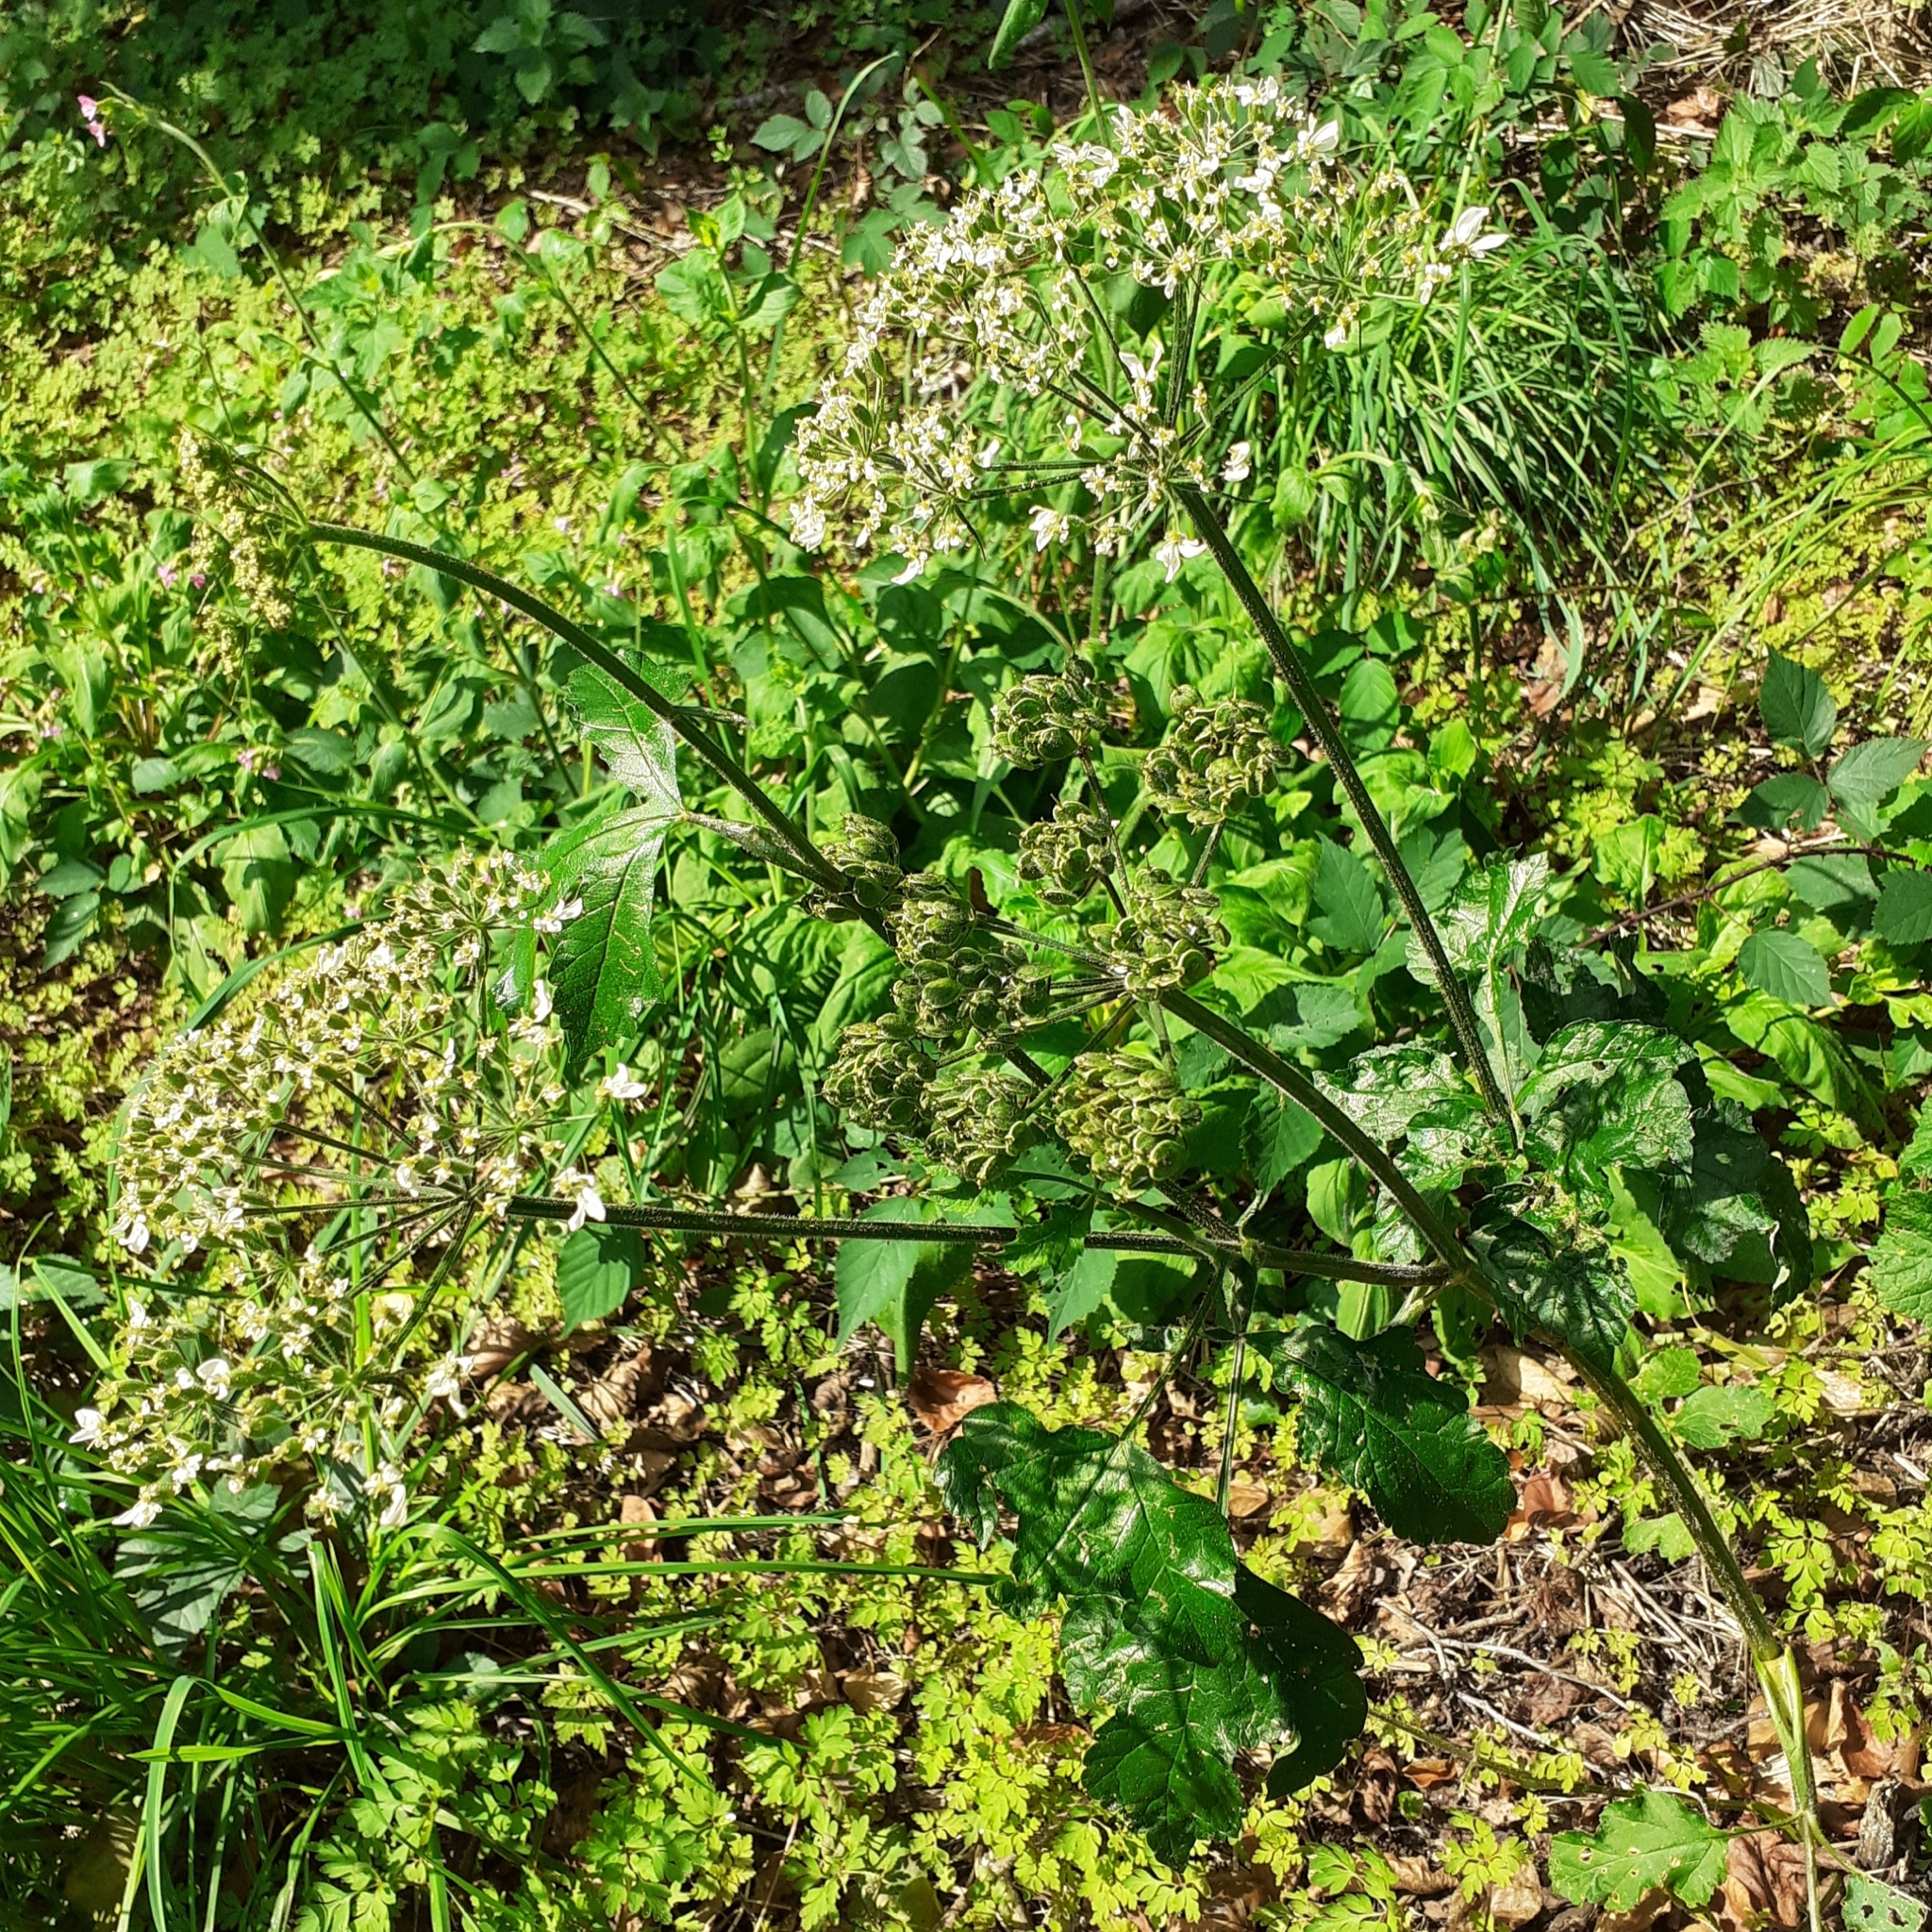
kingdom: Plantae
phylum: Tracheophyta
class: Magnoliopsida
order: Apiales
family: Apiaceae
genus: Heracleum
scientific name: Heracleum sphondylium
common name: Hogweed
